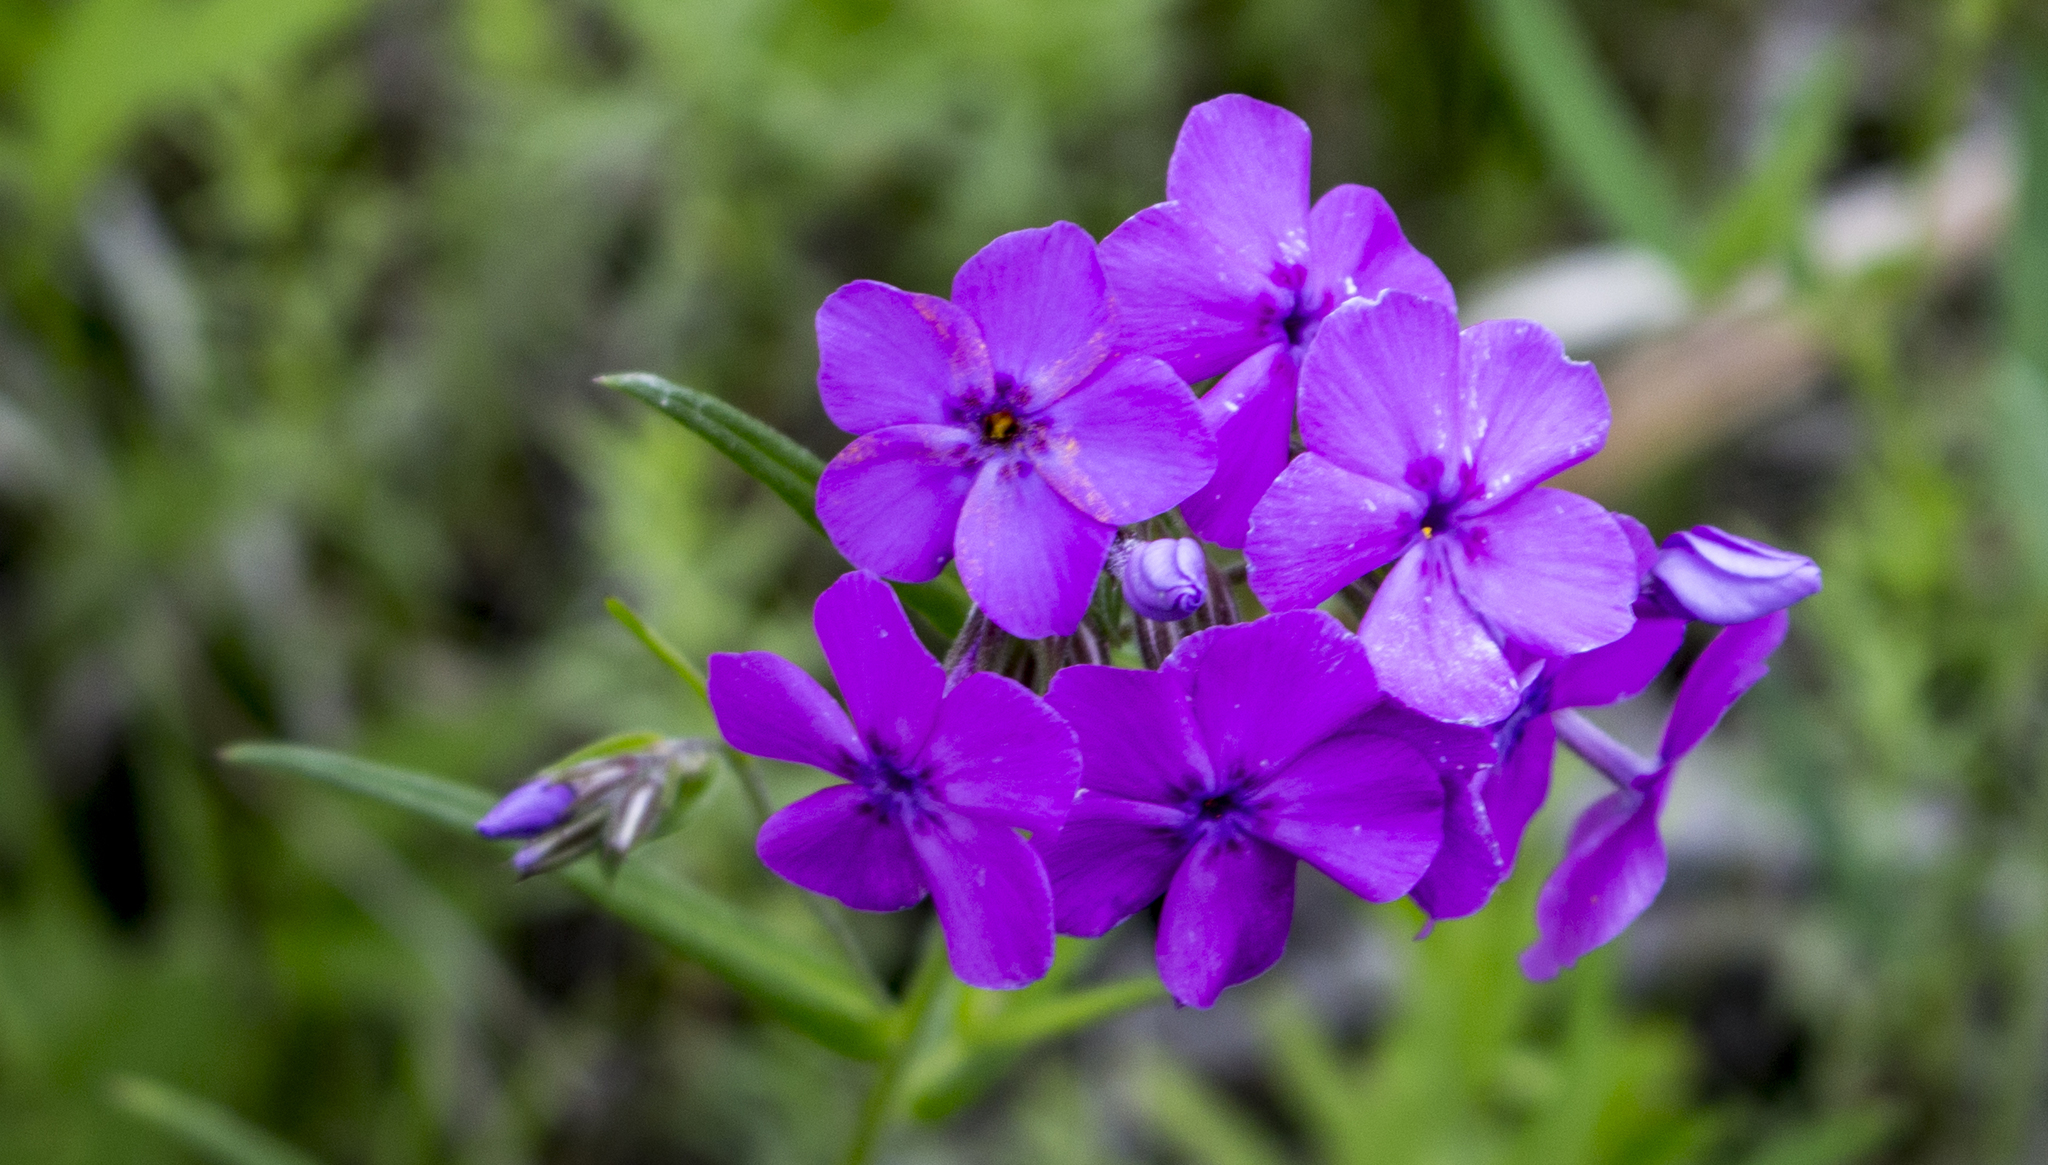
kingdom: Plantae
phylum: Tracheophyta
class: Magnoliopsida
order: Ericales
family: Polemoniaceae
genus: Phlox
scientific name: Phlox pilosa
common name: Prairie phlox
